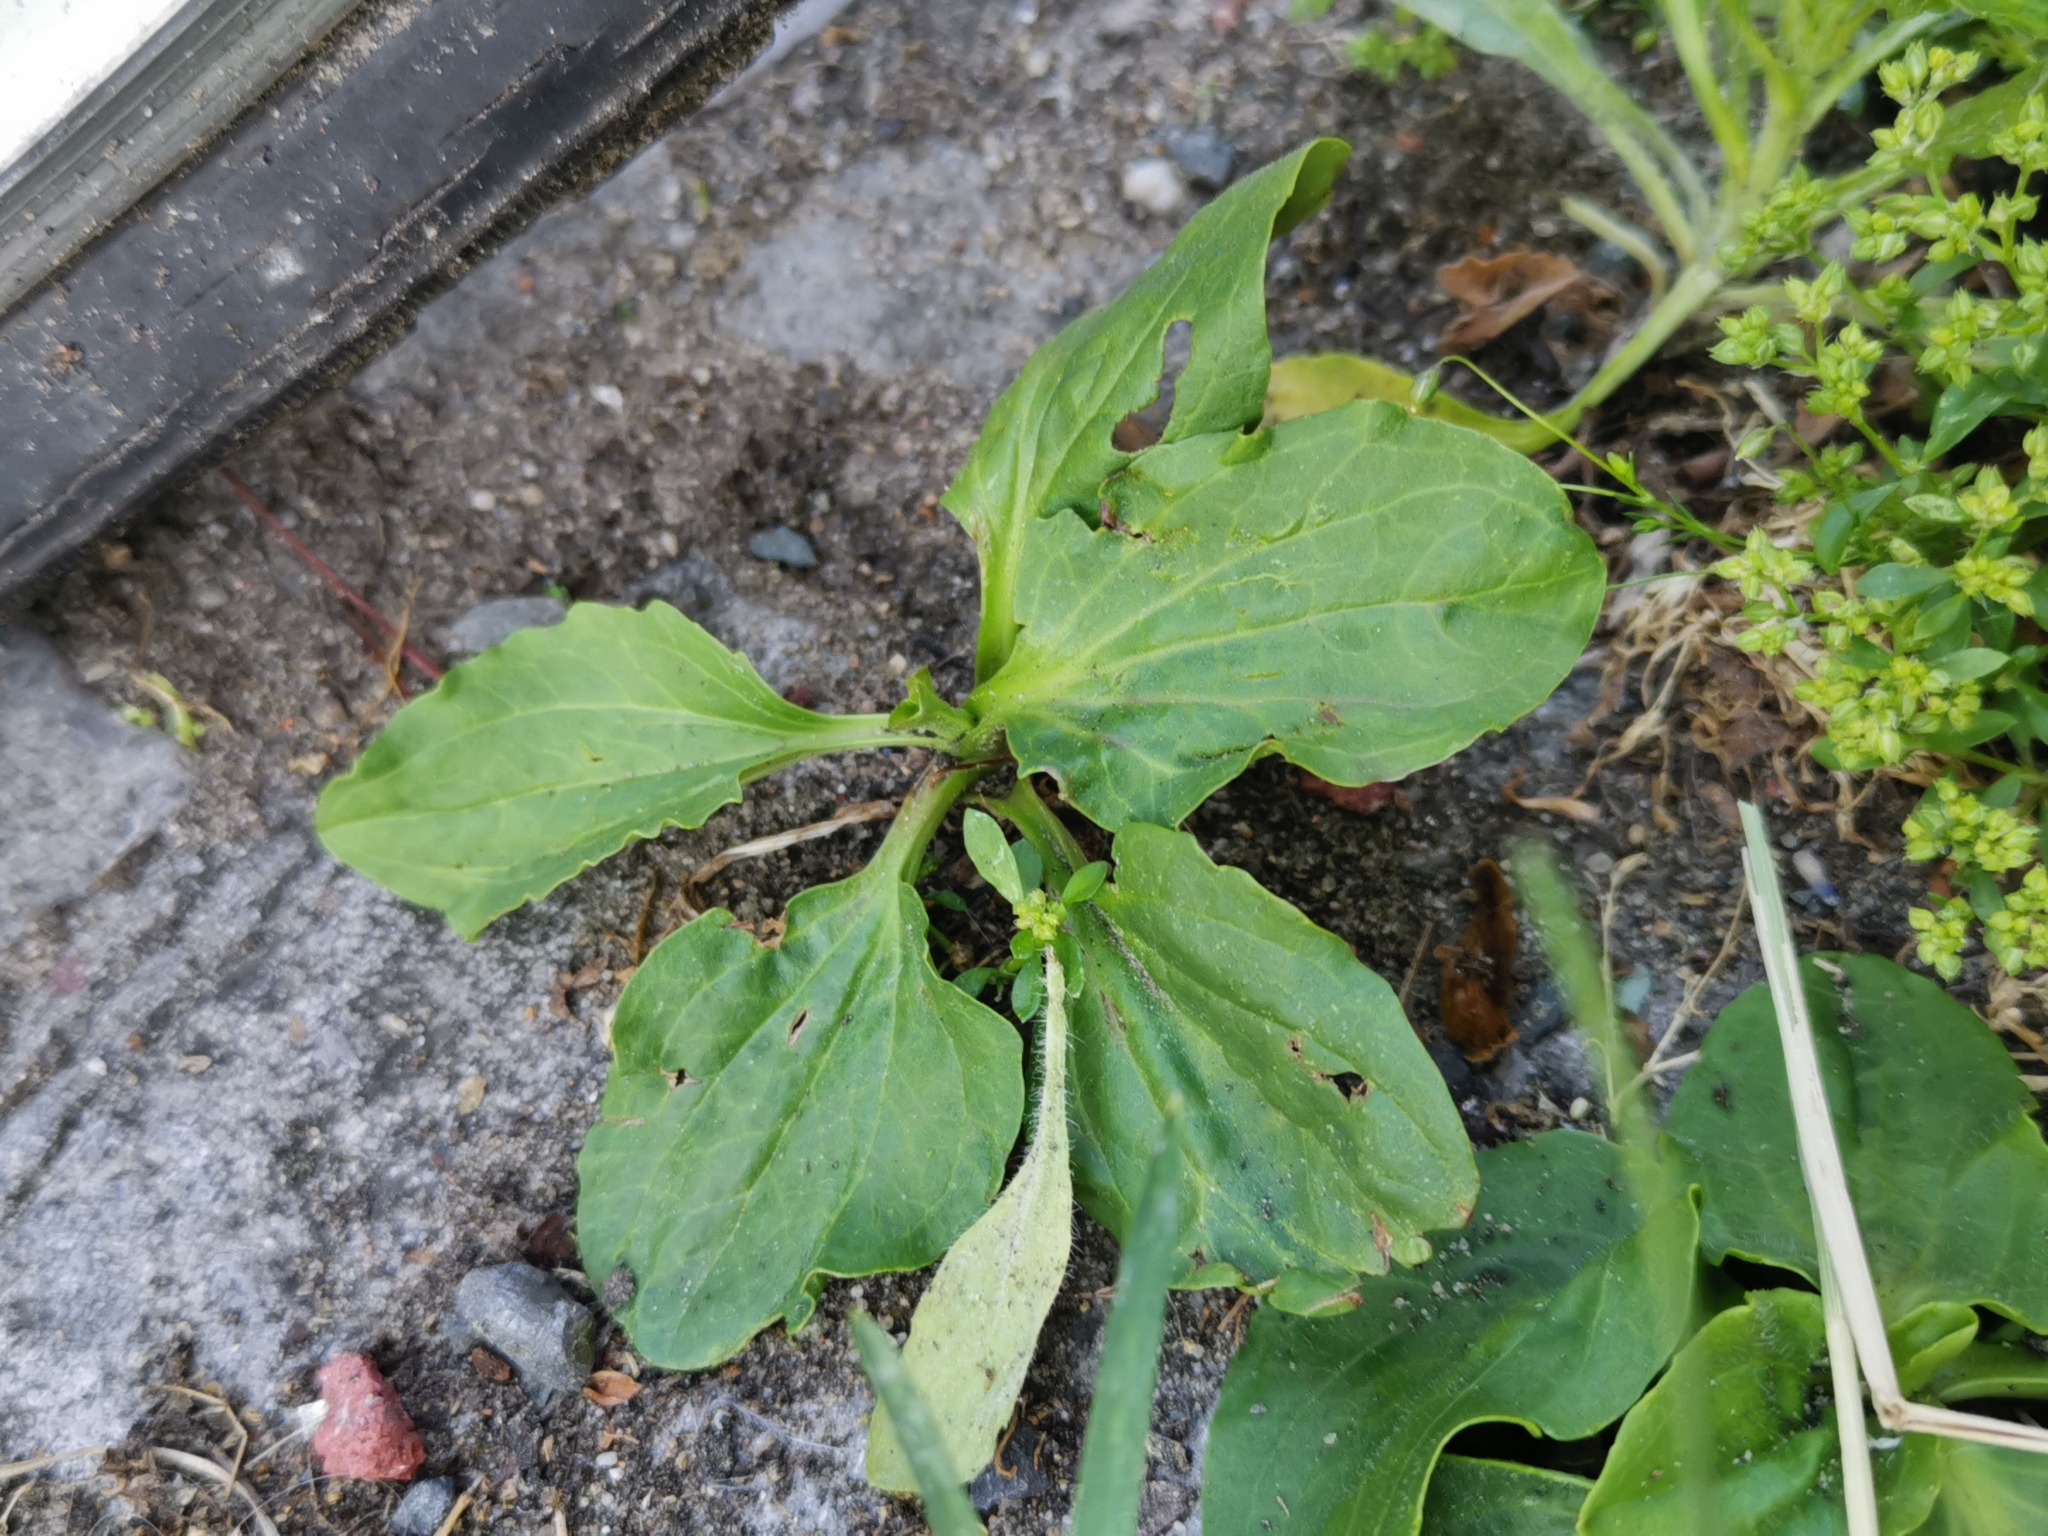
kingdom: Plantae
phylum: Tracheophyta
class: Magnoliopsida
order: Lamiales
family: Plantaginaceae
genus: Plantago
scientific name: Plantago major
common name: Common plantain
